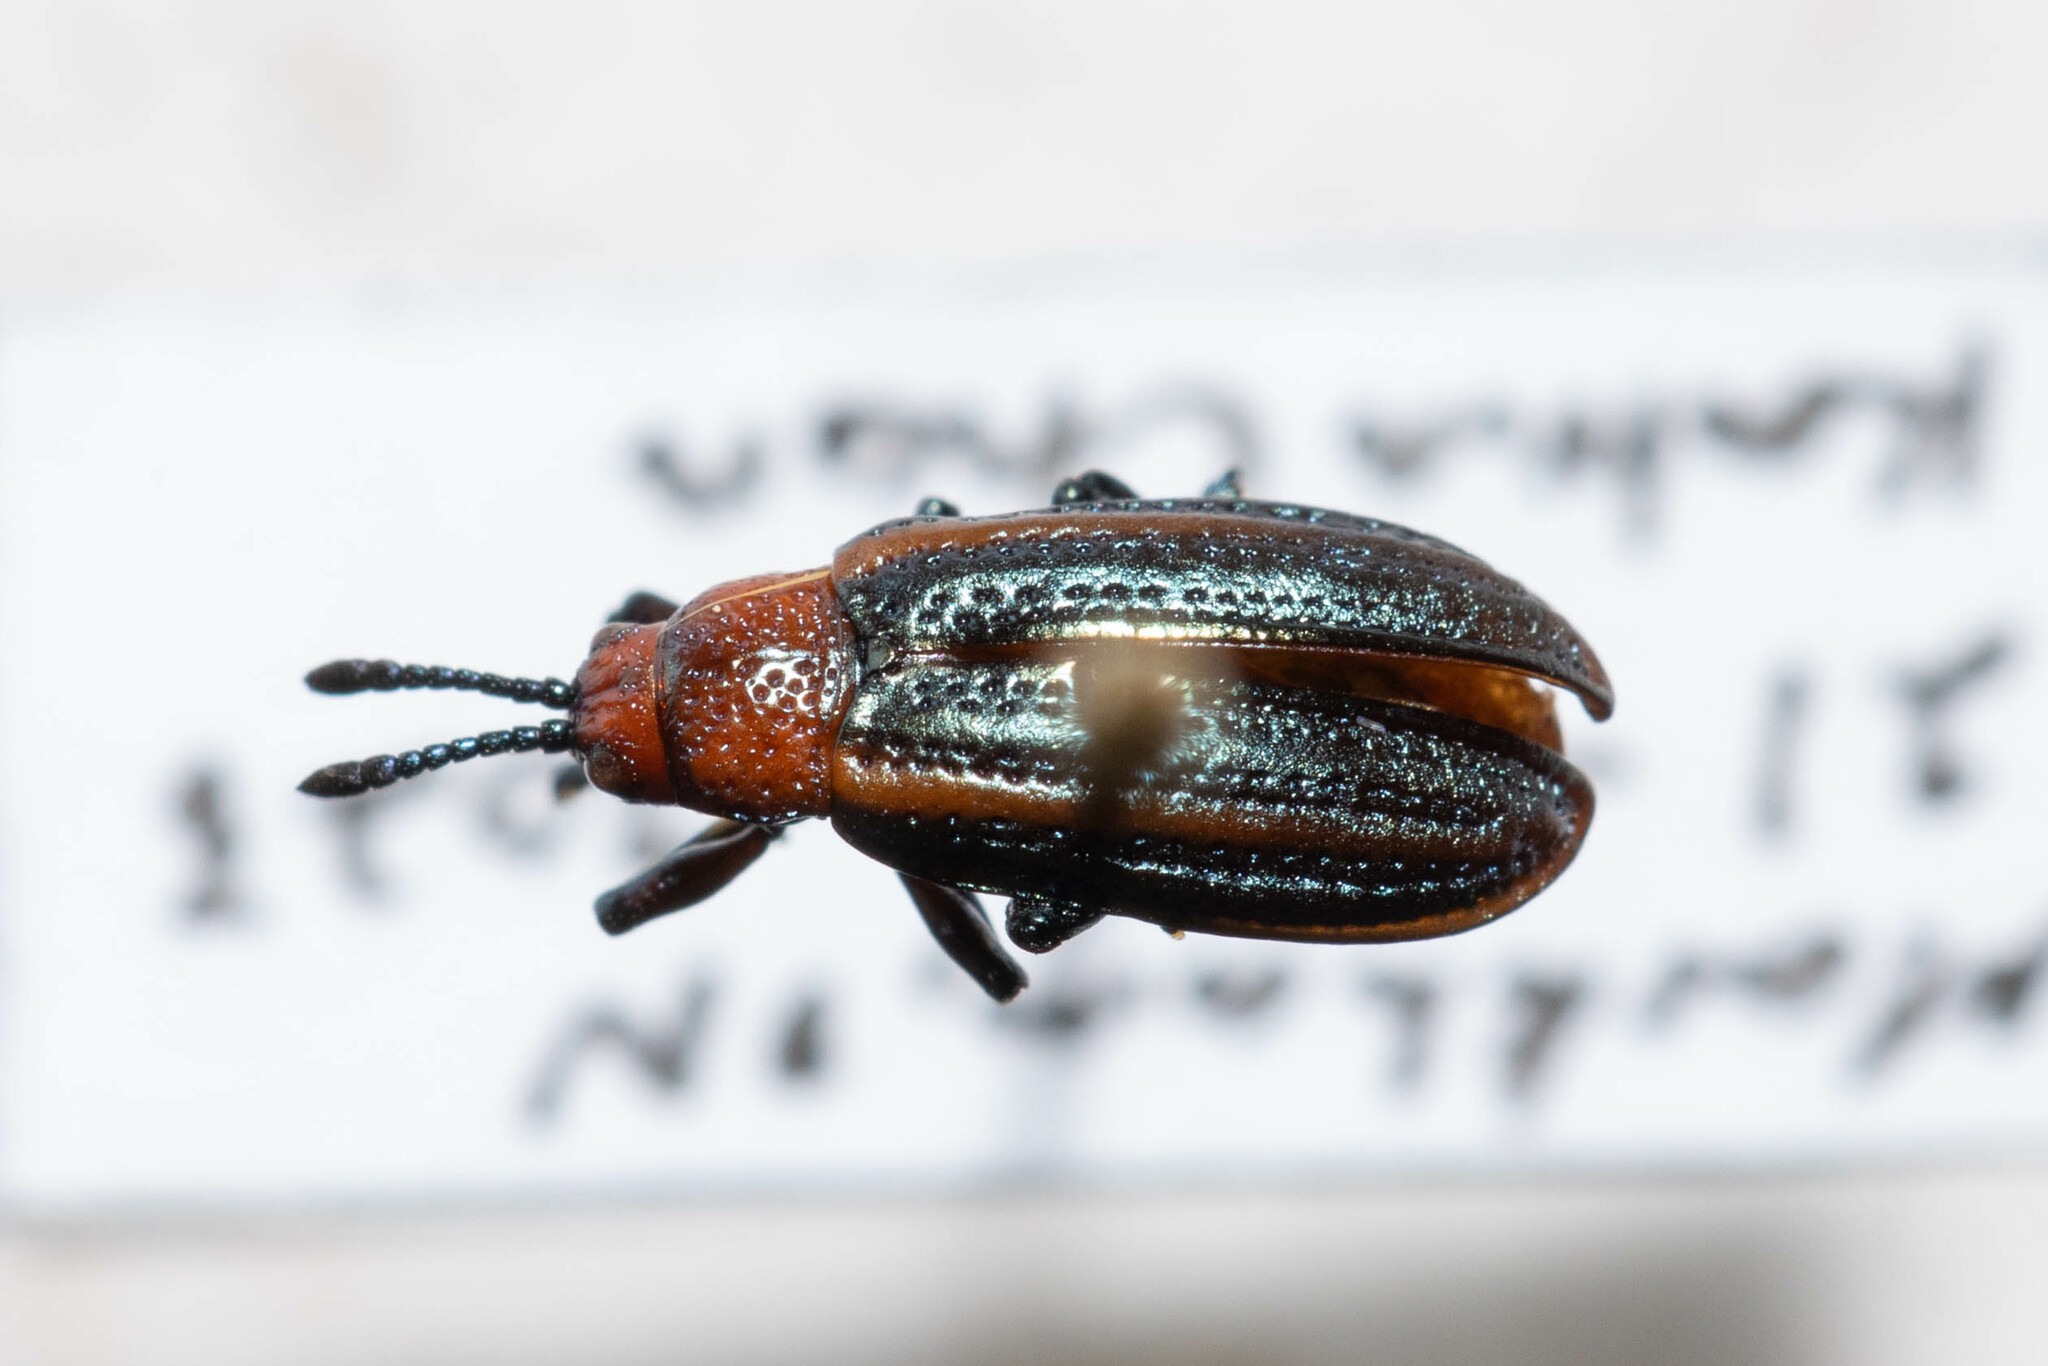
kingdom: Animalia
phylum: Arthropoda
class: Insecta
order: Coleoptera
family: Chrysomelidae
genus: Microrhopala
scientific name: Microrhopala vittata
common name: Goldenrod leaf miner beetle
